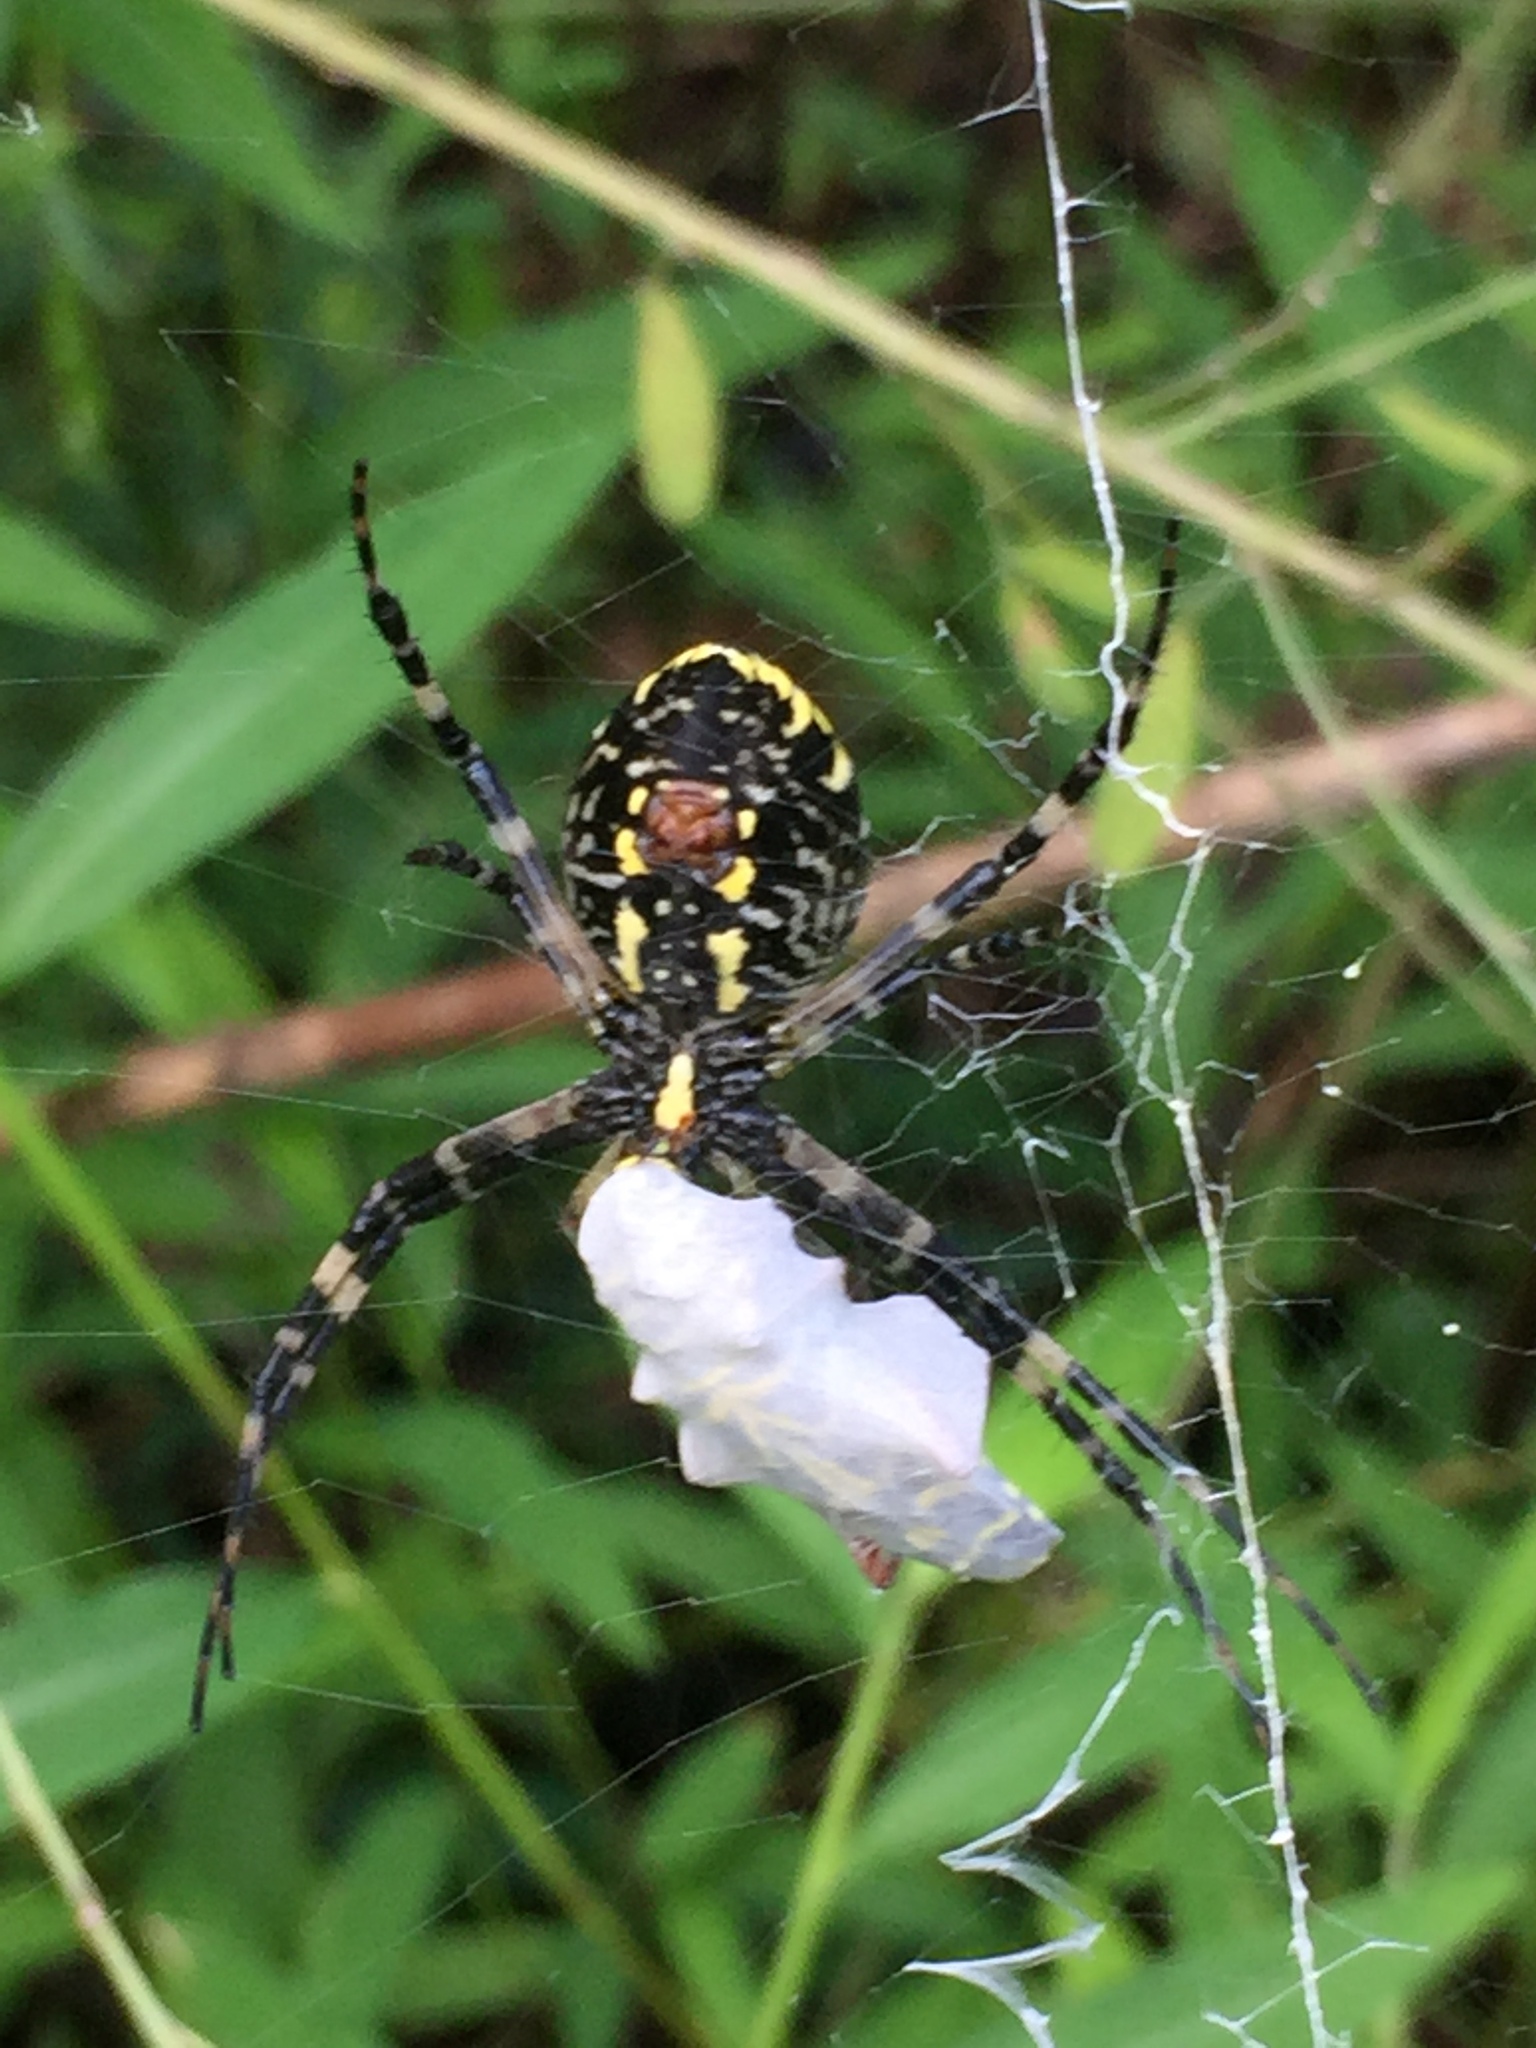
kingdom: Animalia
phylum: Arthropoda
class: Arachnida
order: Araneae
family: Araneidae
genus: Argiope
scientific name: Argiope aurantia
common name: Orb weavers
